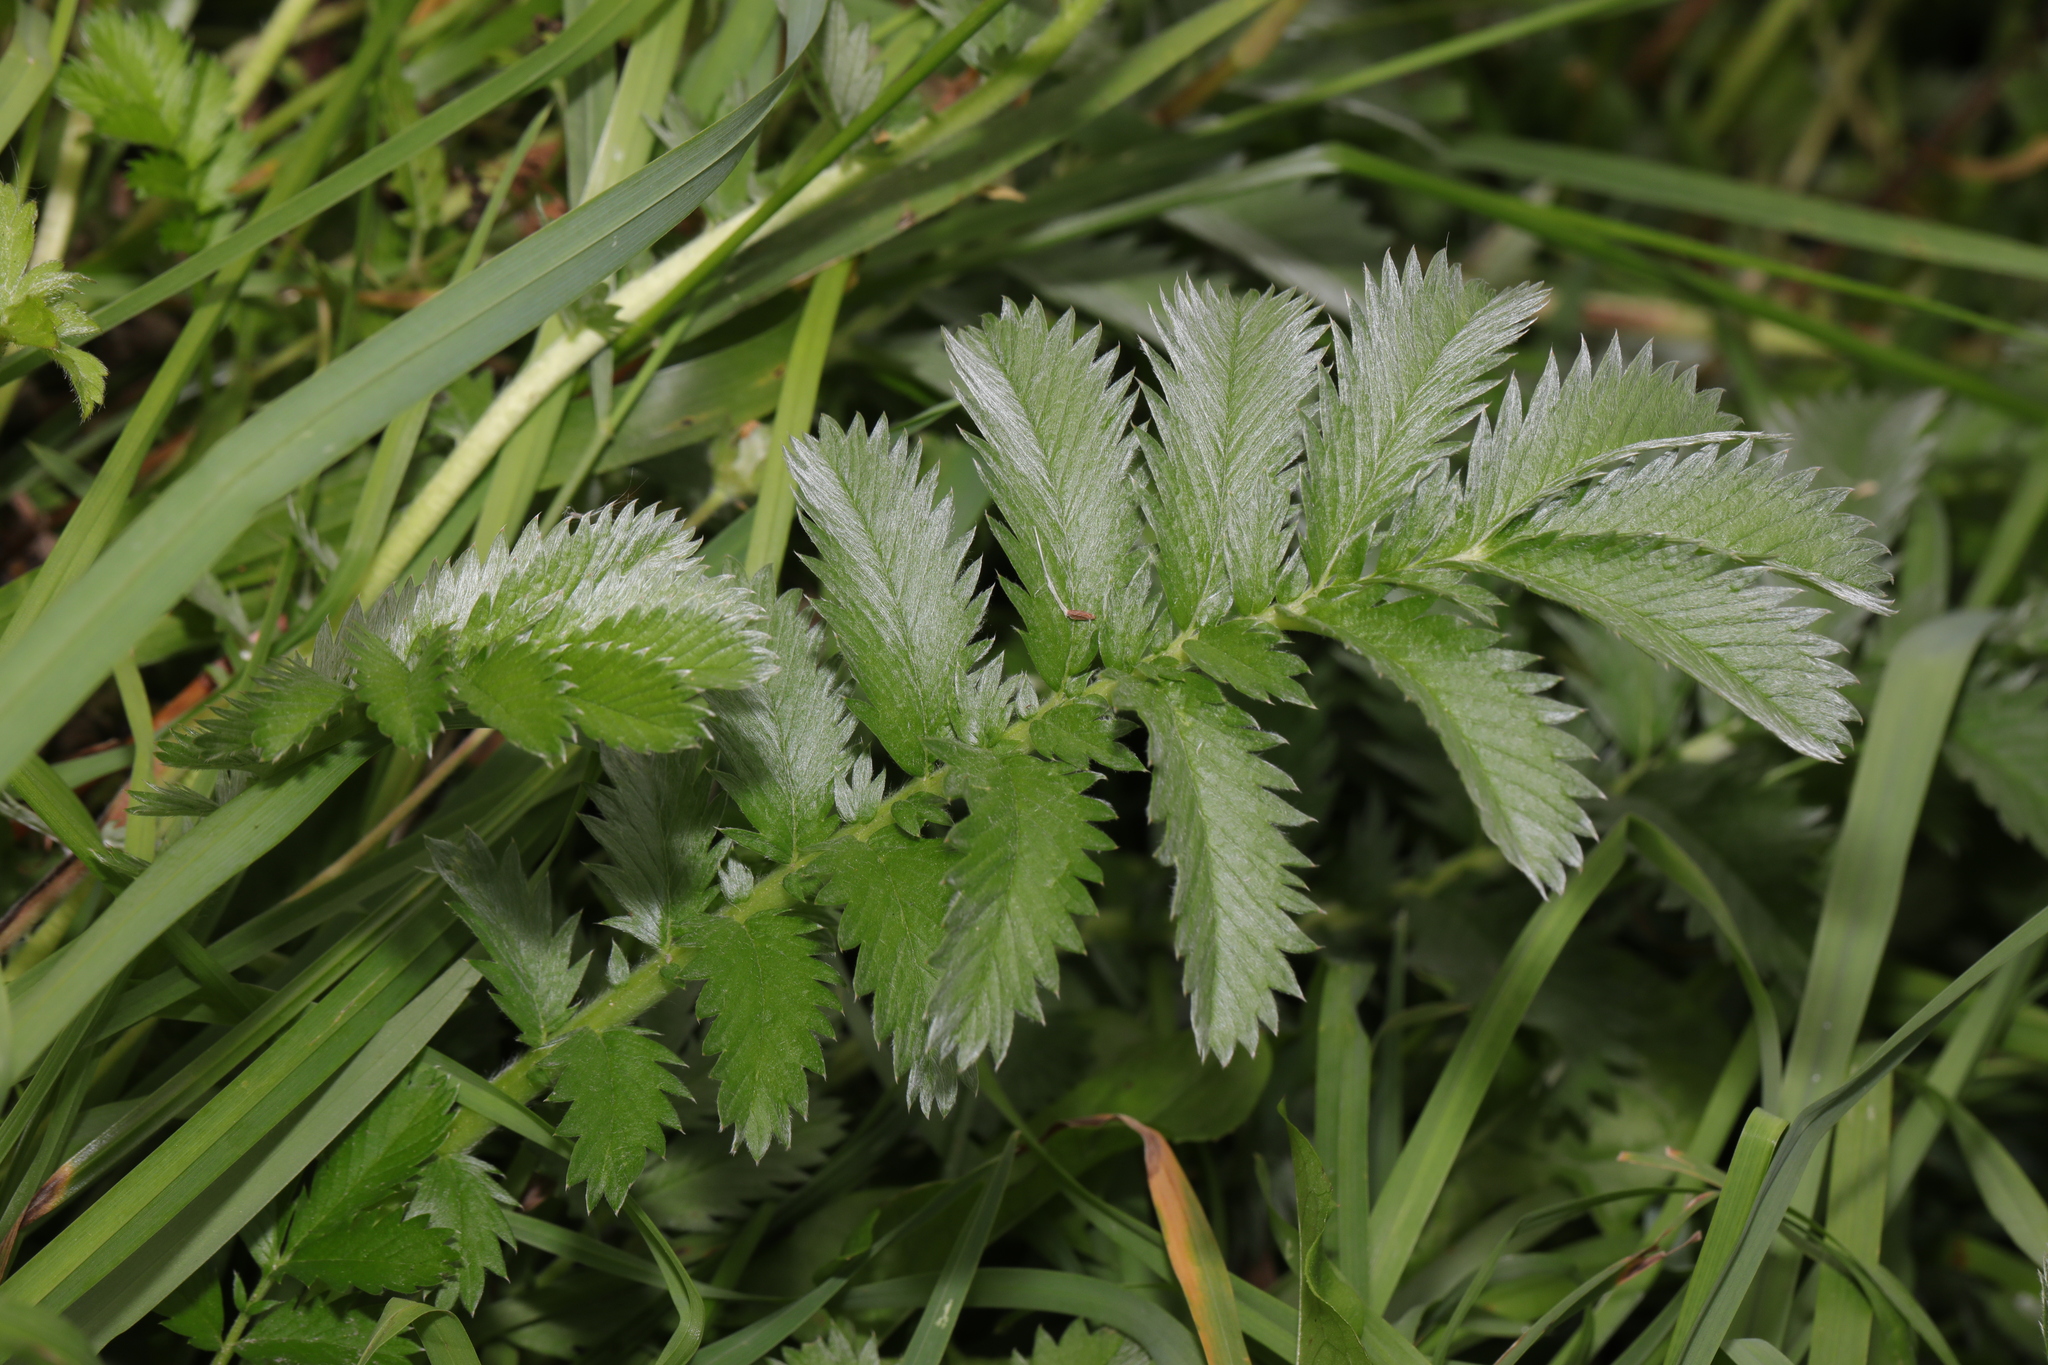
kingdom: Plantae
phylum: Tracheophyta
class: Magnoliopsida
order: Rosales
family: Rosaceae
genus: Argentina
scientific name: Argentina anserina
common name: Common silverweed
